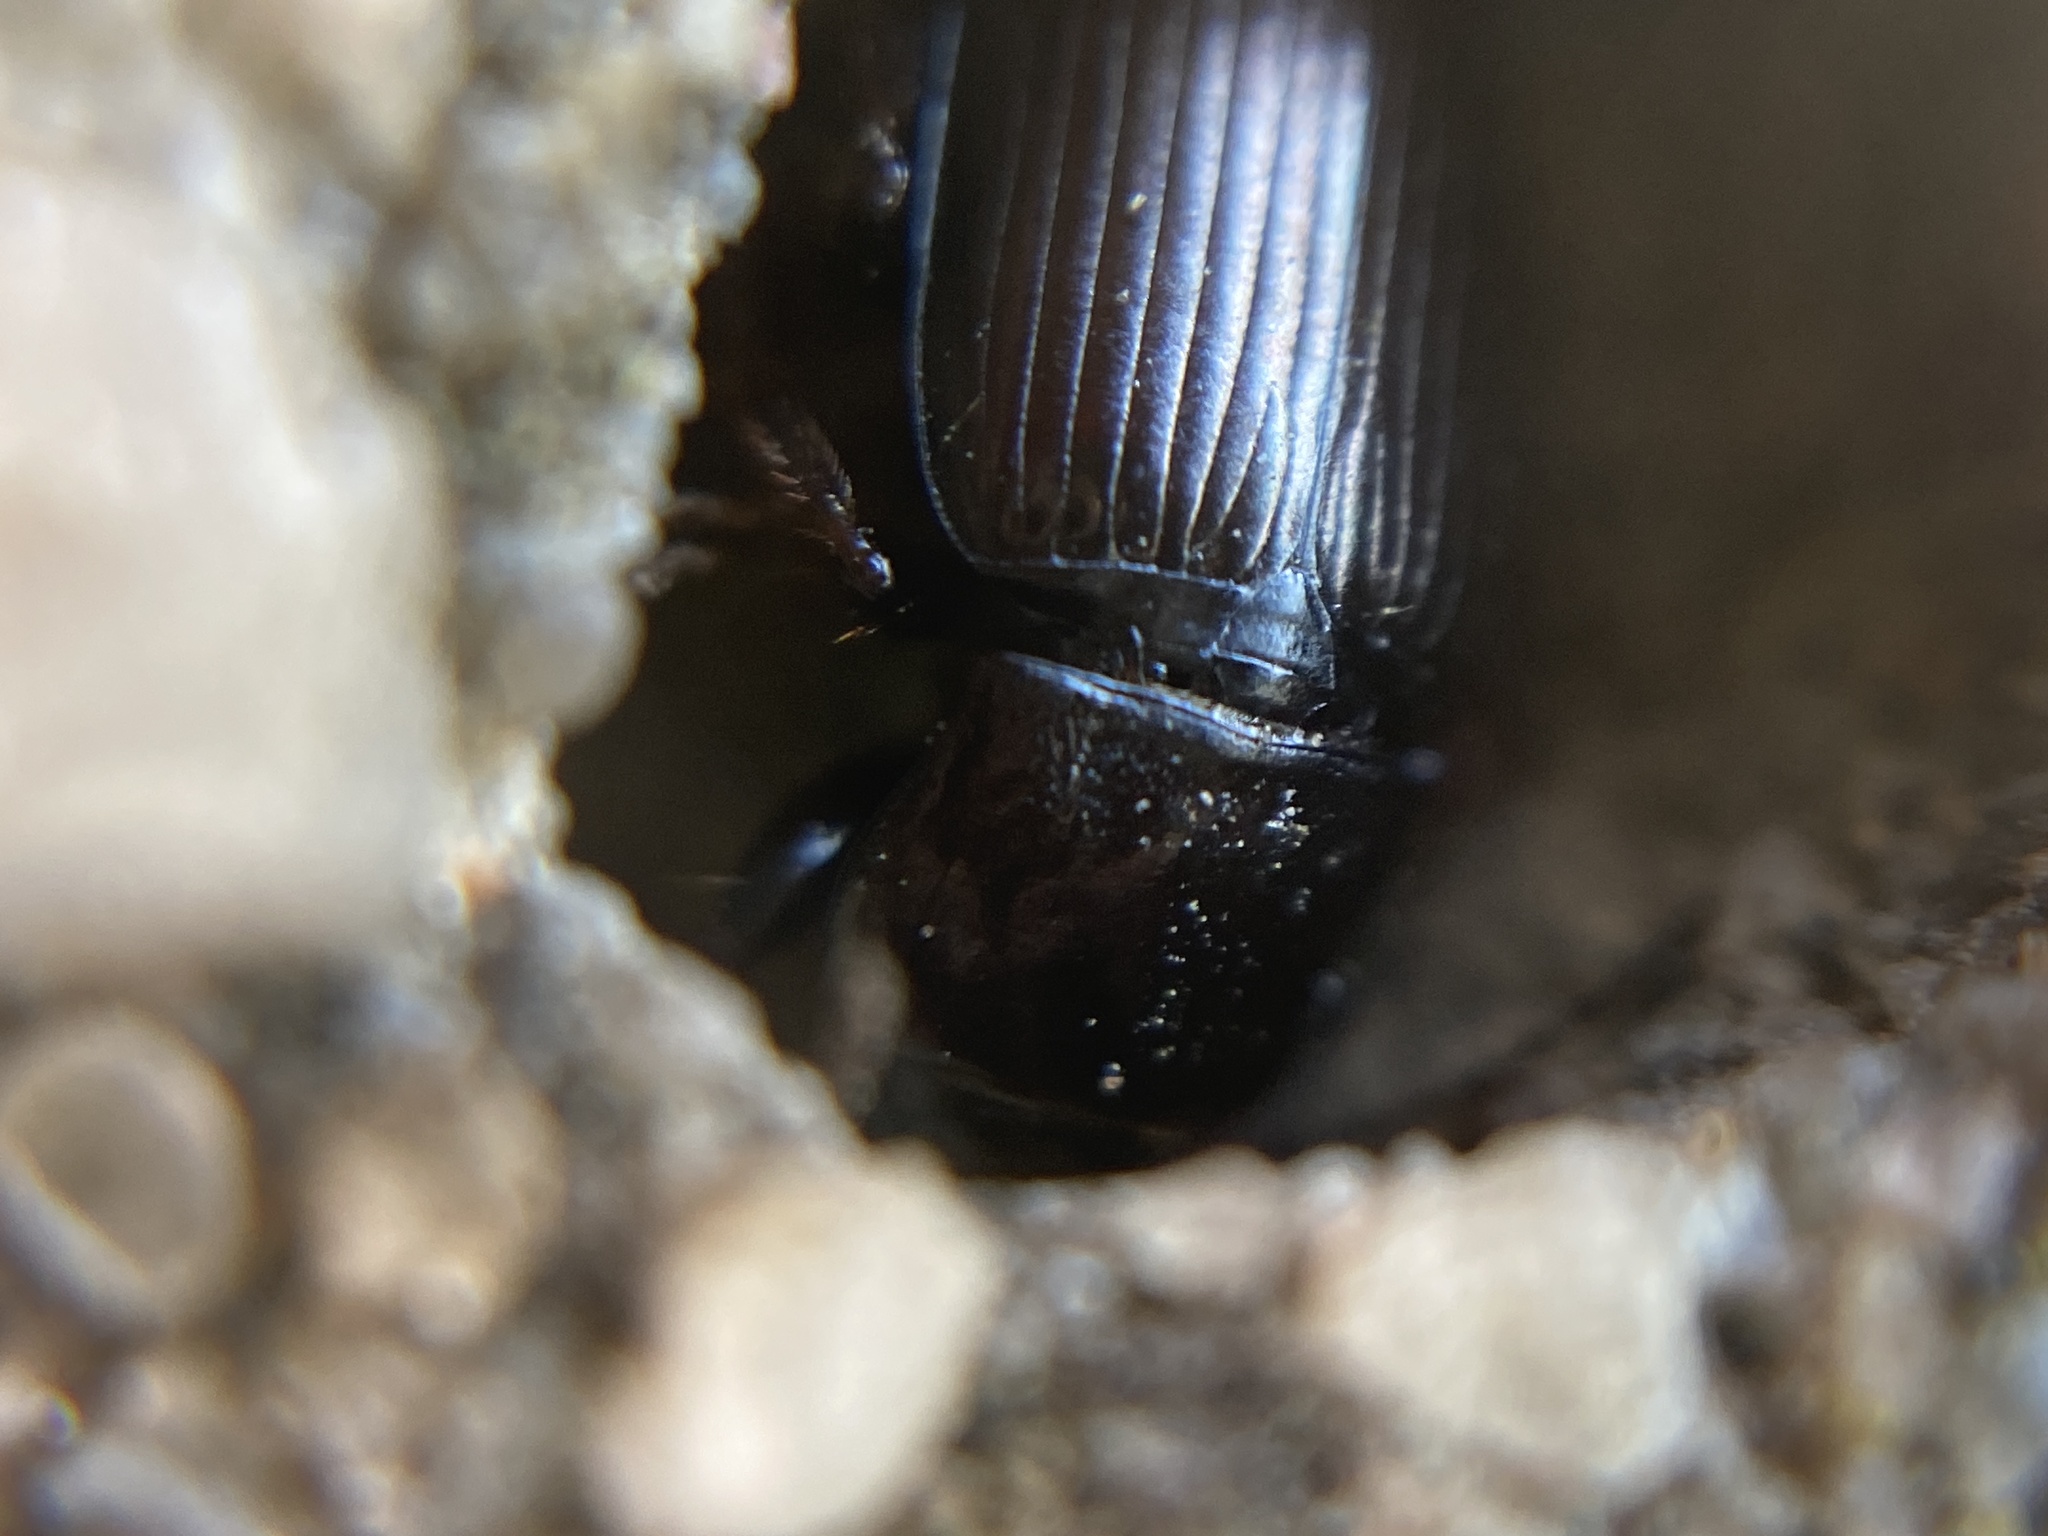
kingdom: Animalia
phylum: Arthropoda
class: Insecta
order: Coleoptera
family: Carabidae
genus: Harpalus
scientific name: Harpalus distinguendus
